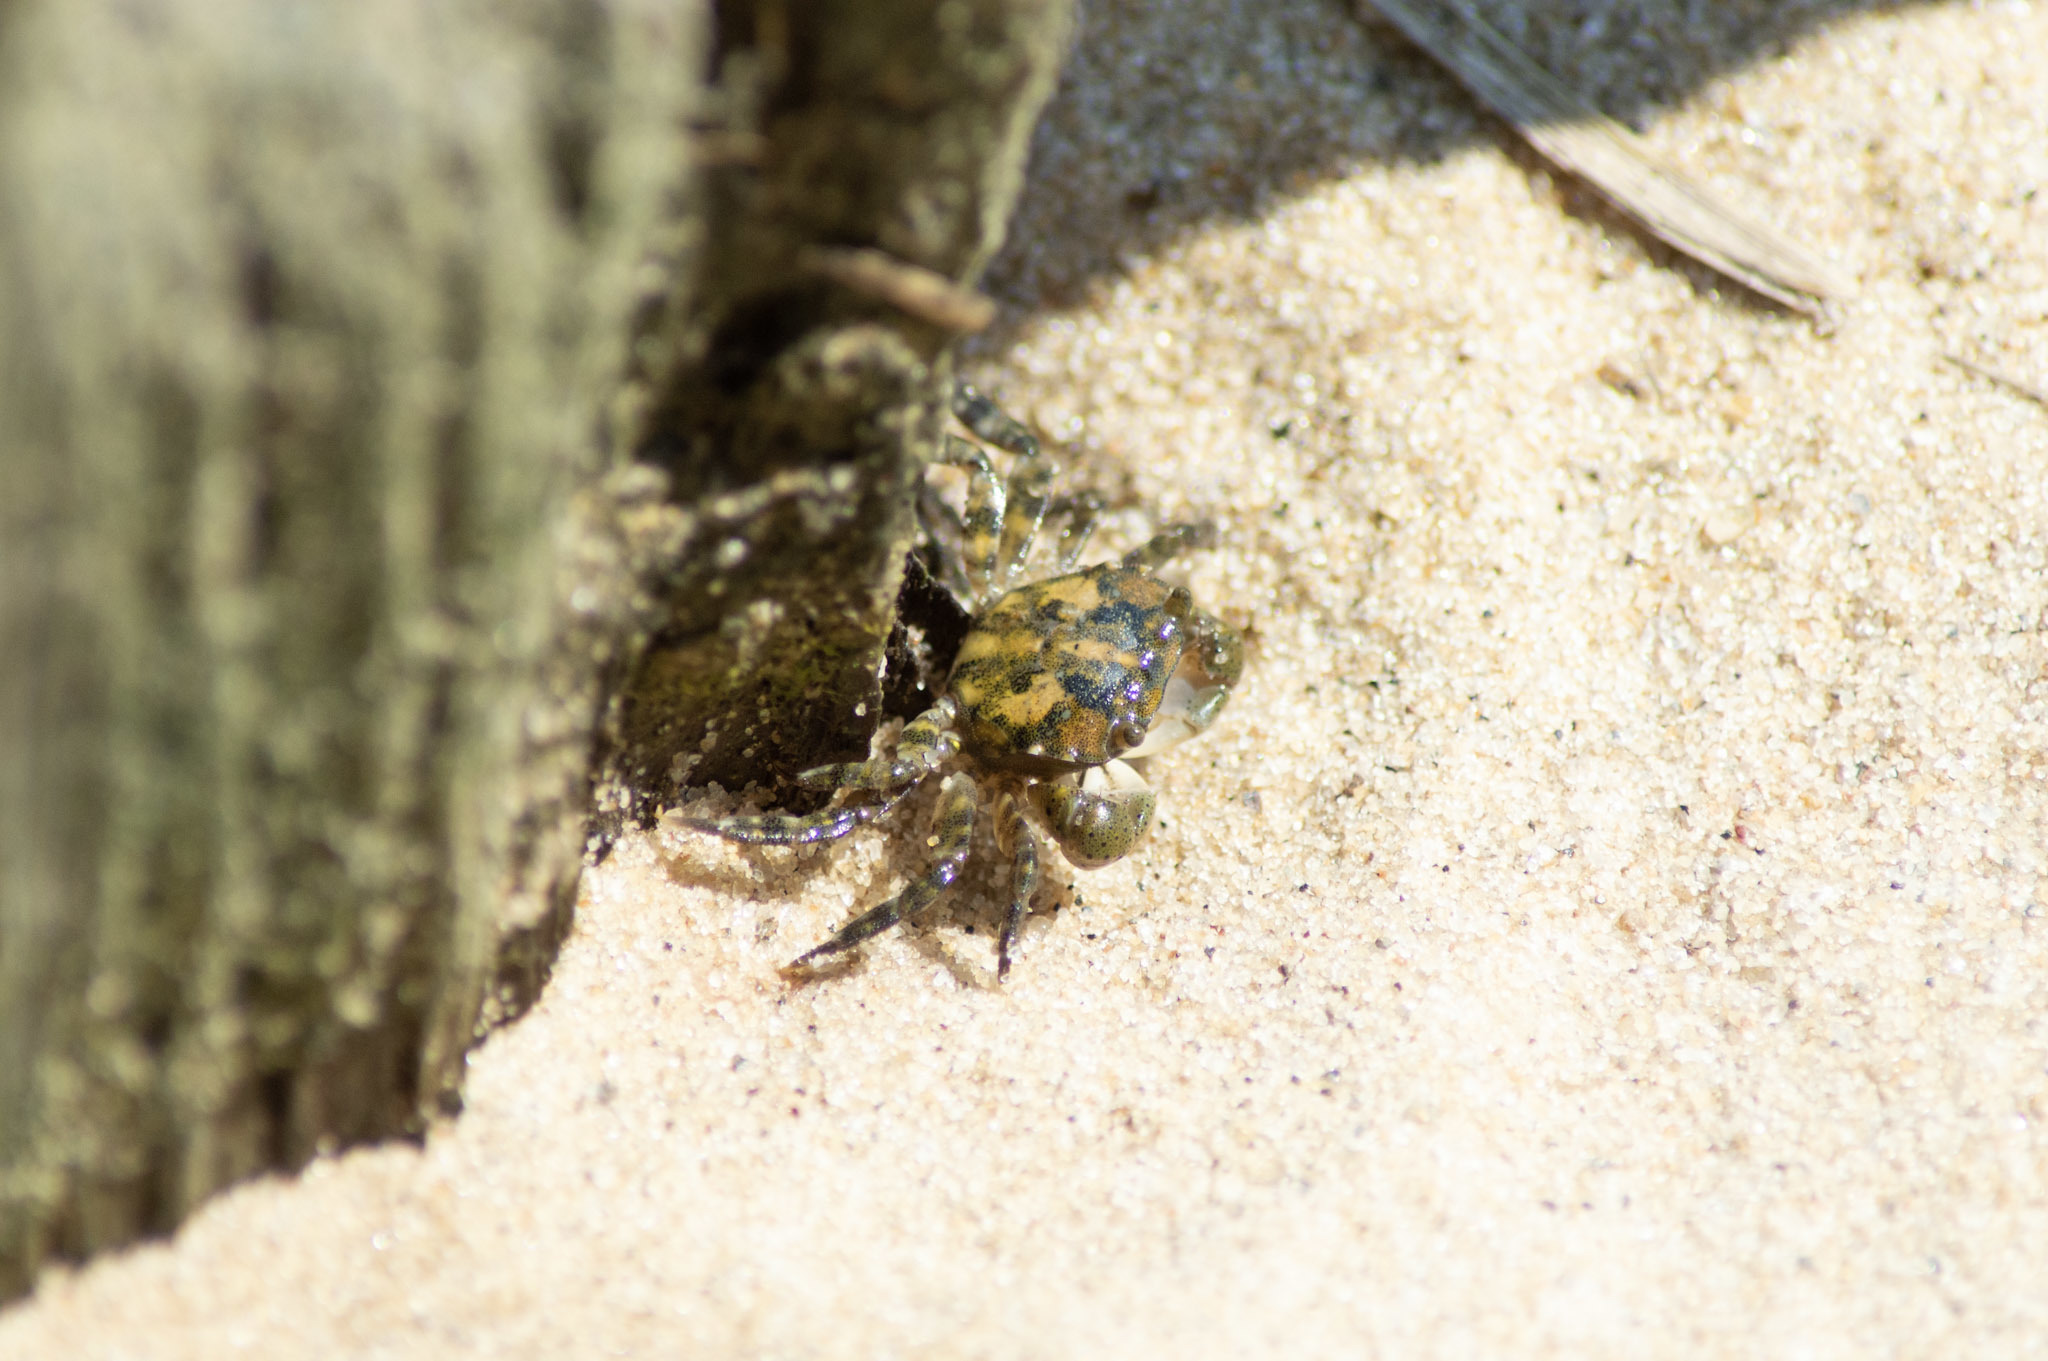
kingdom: Animalia
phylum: Arthropoda
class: Malacostraca
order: Decapoda
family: Varunidae
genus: Hemigrapsus
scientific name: Hemigrapsus sanguineus
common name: Asian shore crab
